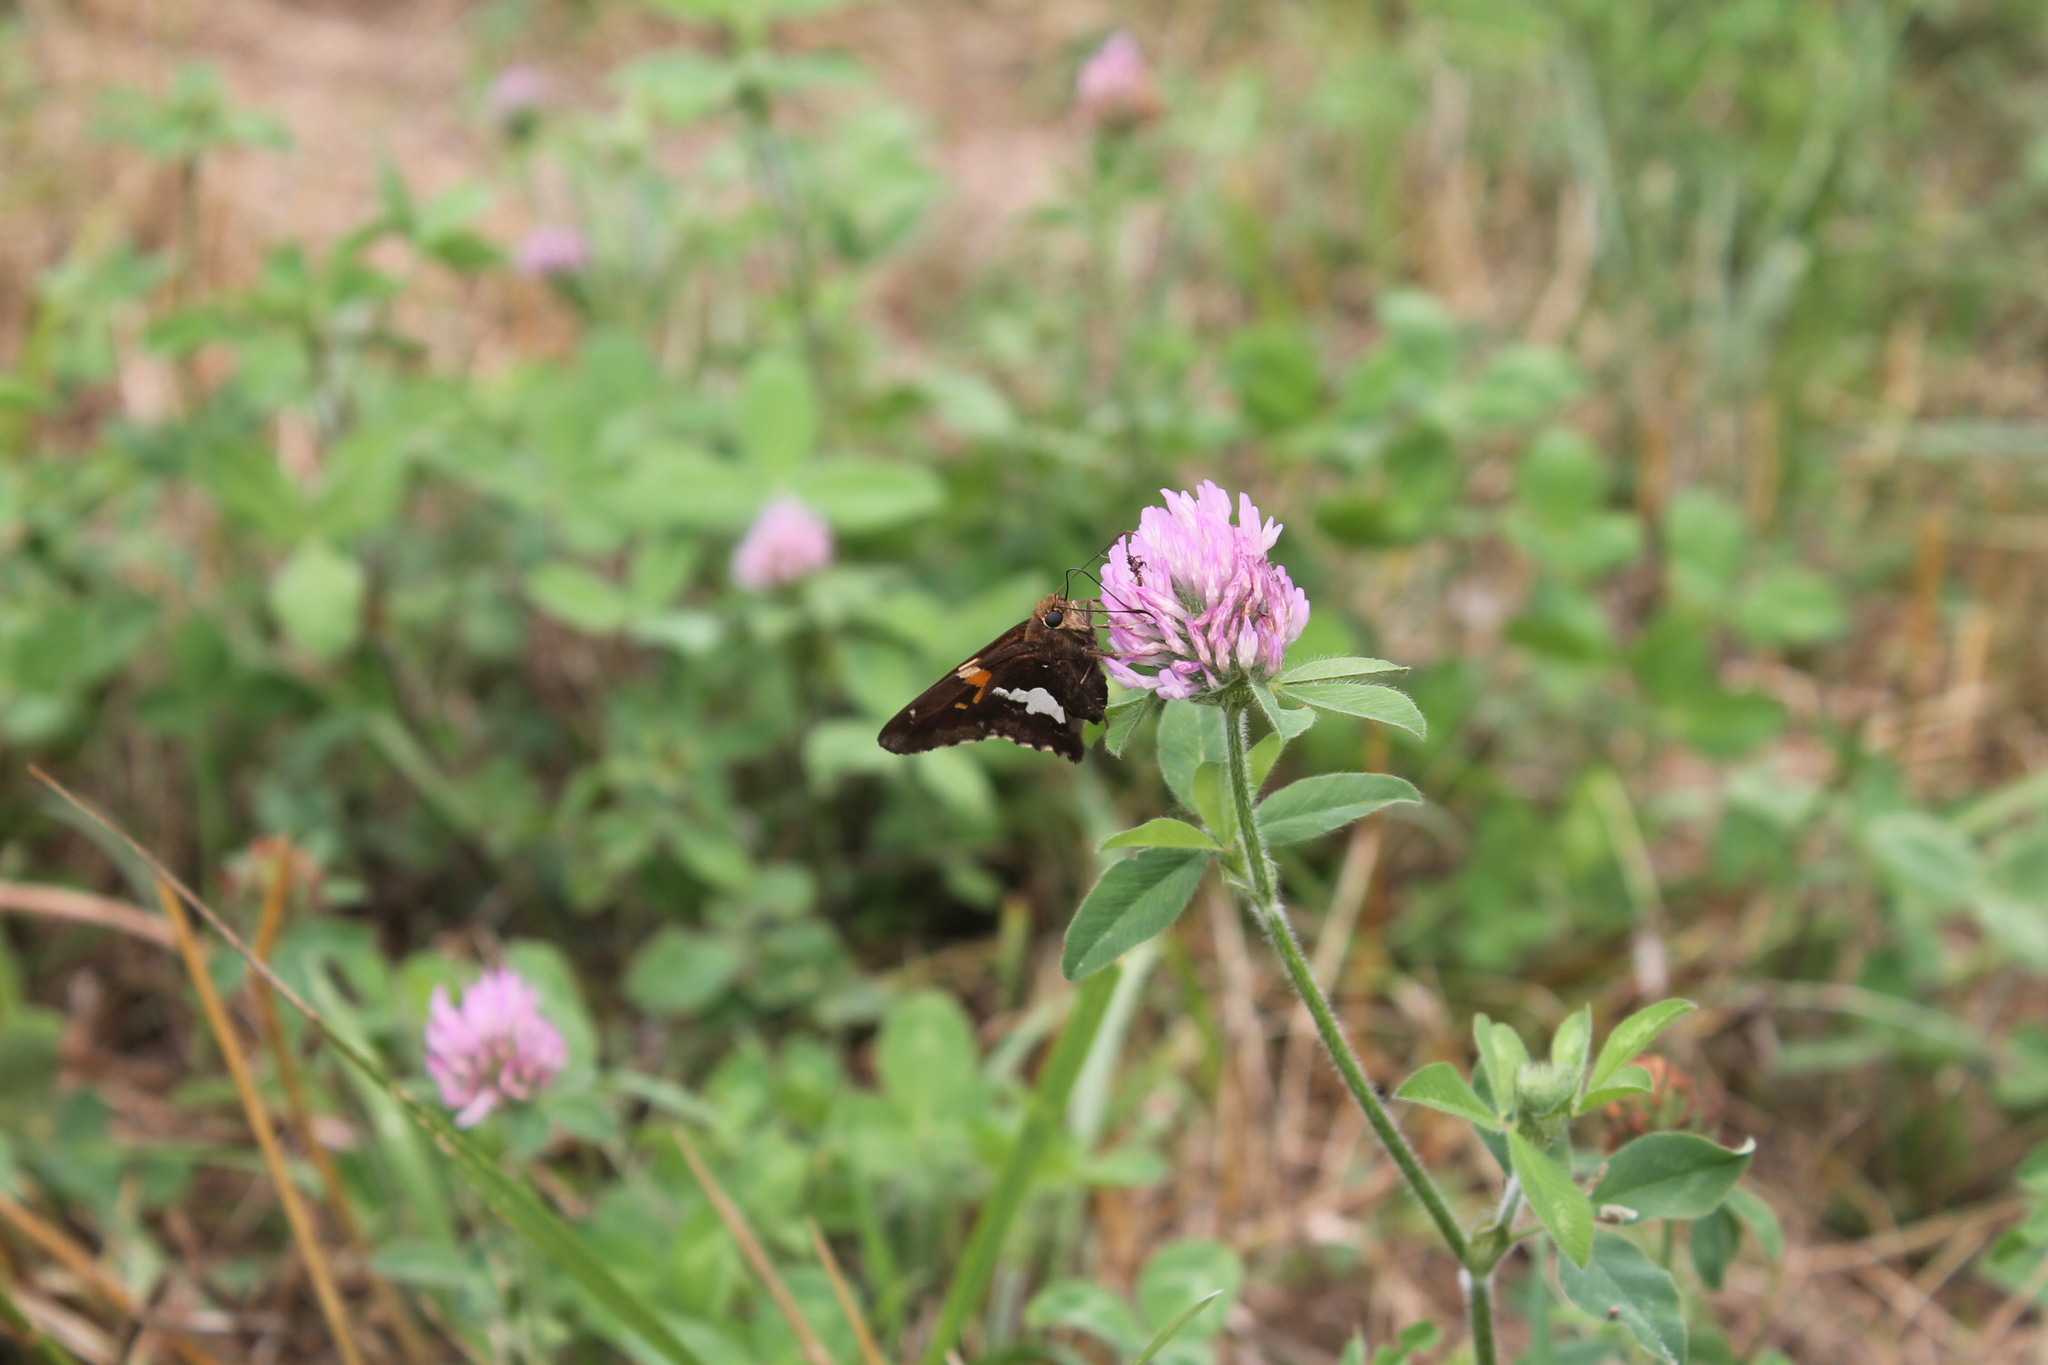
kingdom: Animalia
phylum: Arthropoda
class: Insecta
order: Lepidoptera
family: Hesperiidae
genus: Epargyreus
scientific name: Epargyreus clarus
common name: Silver-spotted skipper
